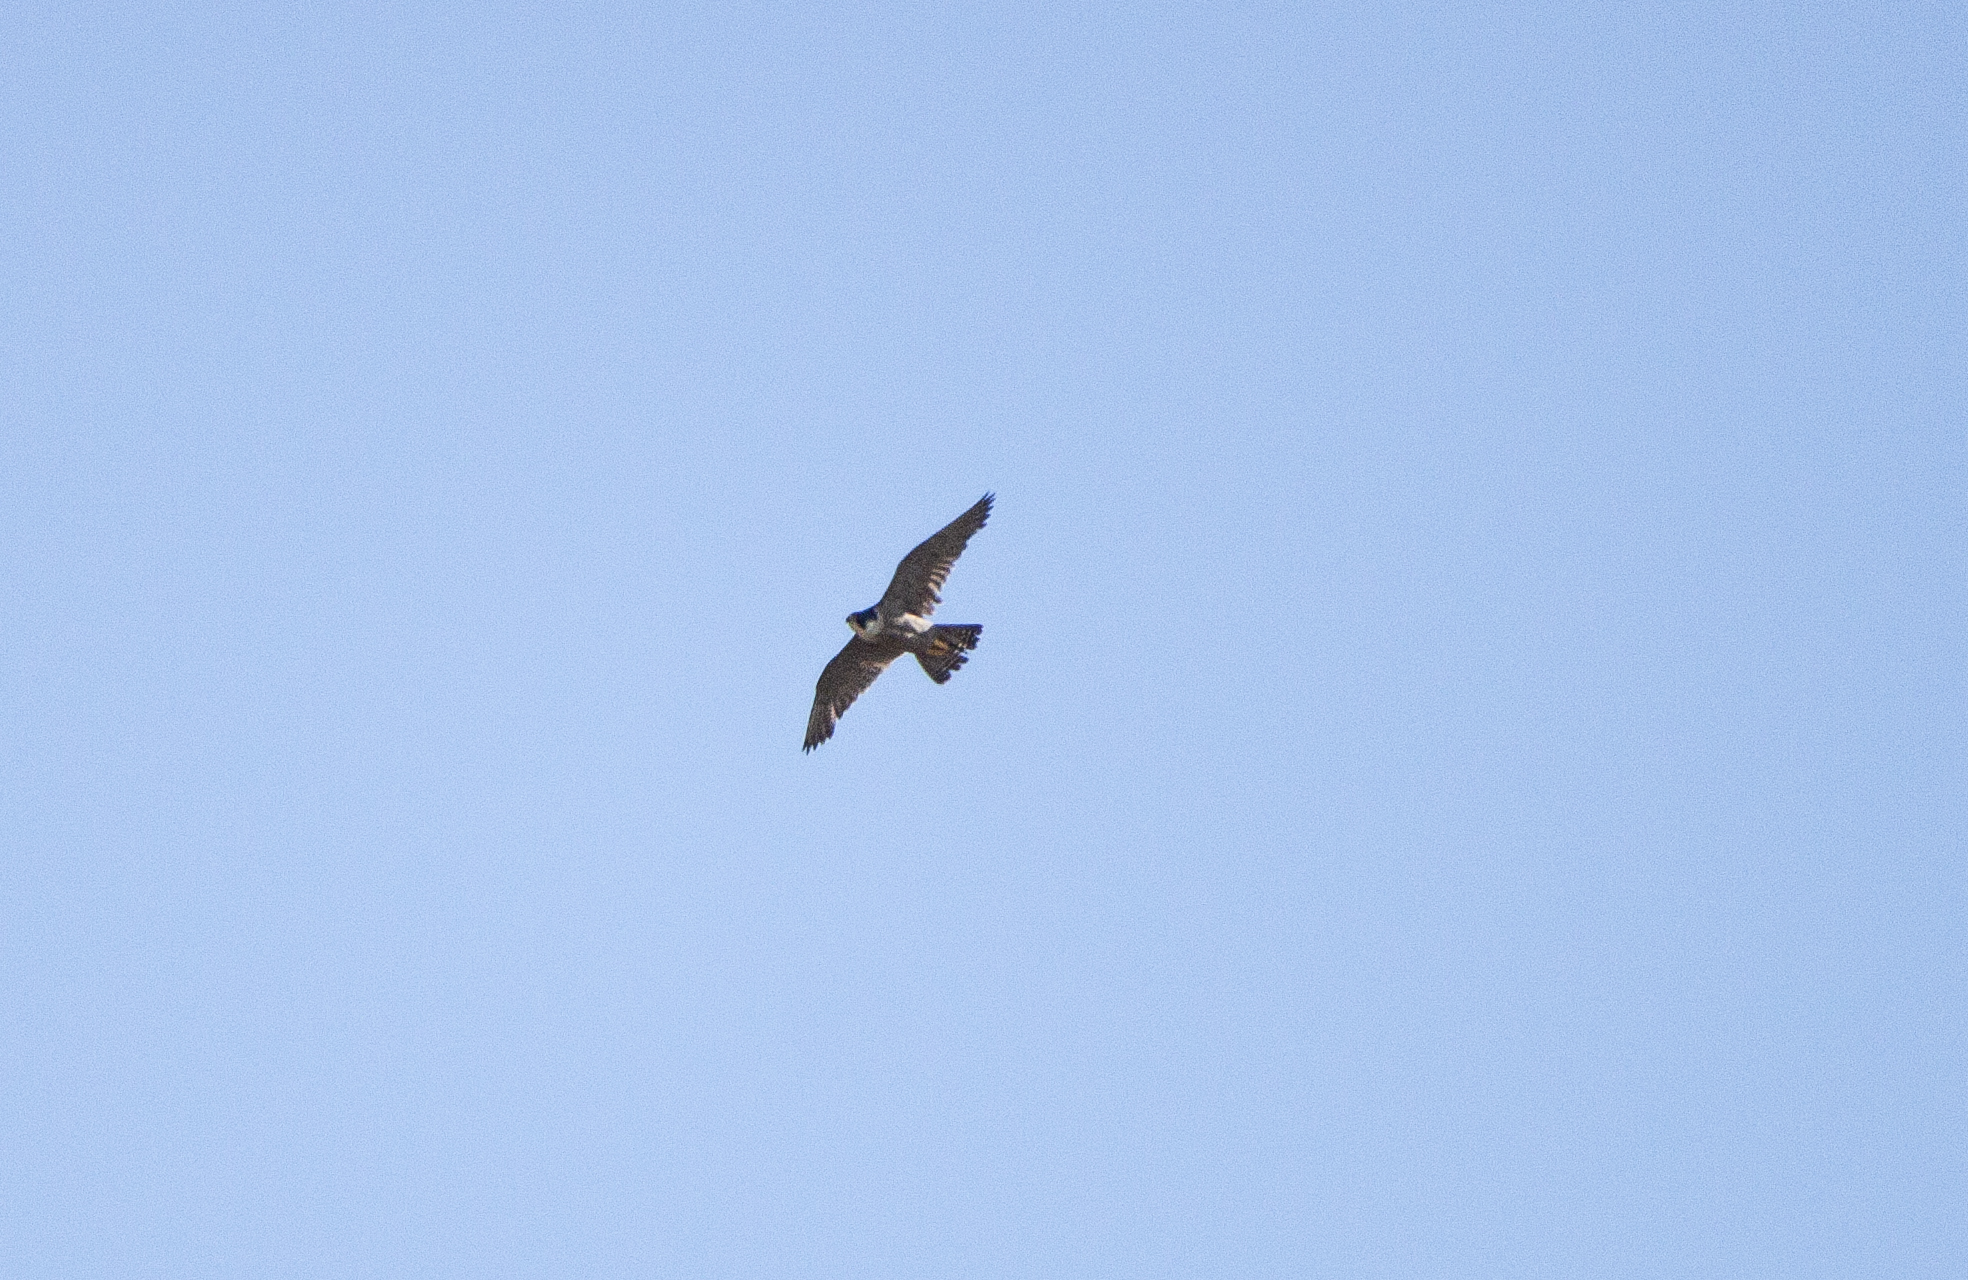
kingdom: Animalia
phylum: Chordata
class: Aves
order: Falconiformes
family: Falconidae
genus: Falco
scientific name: Falco peregrinus
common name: Peregrine falcon
